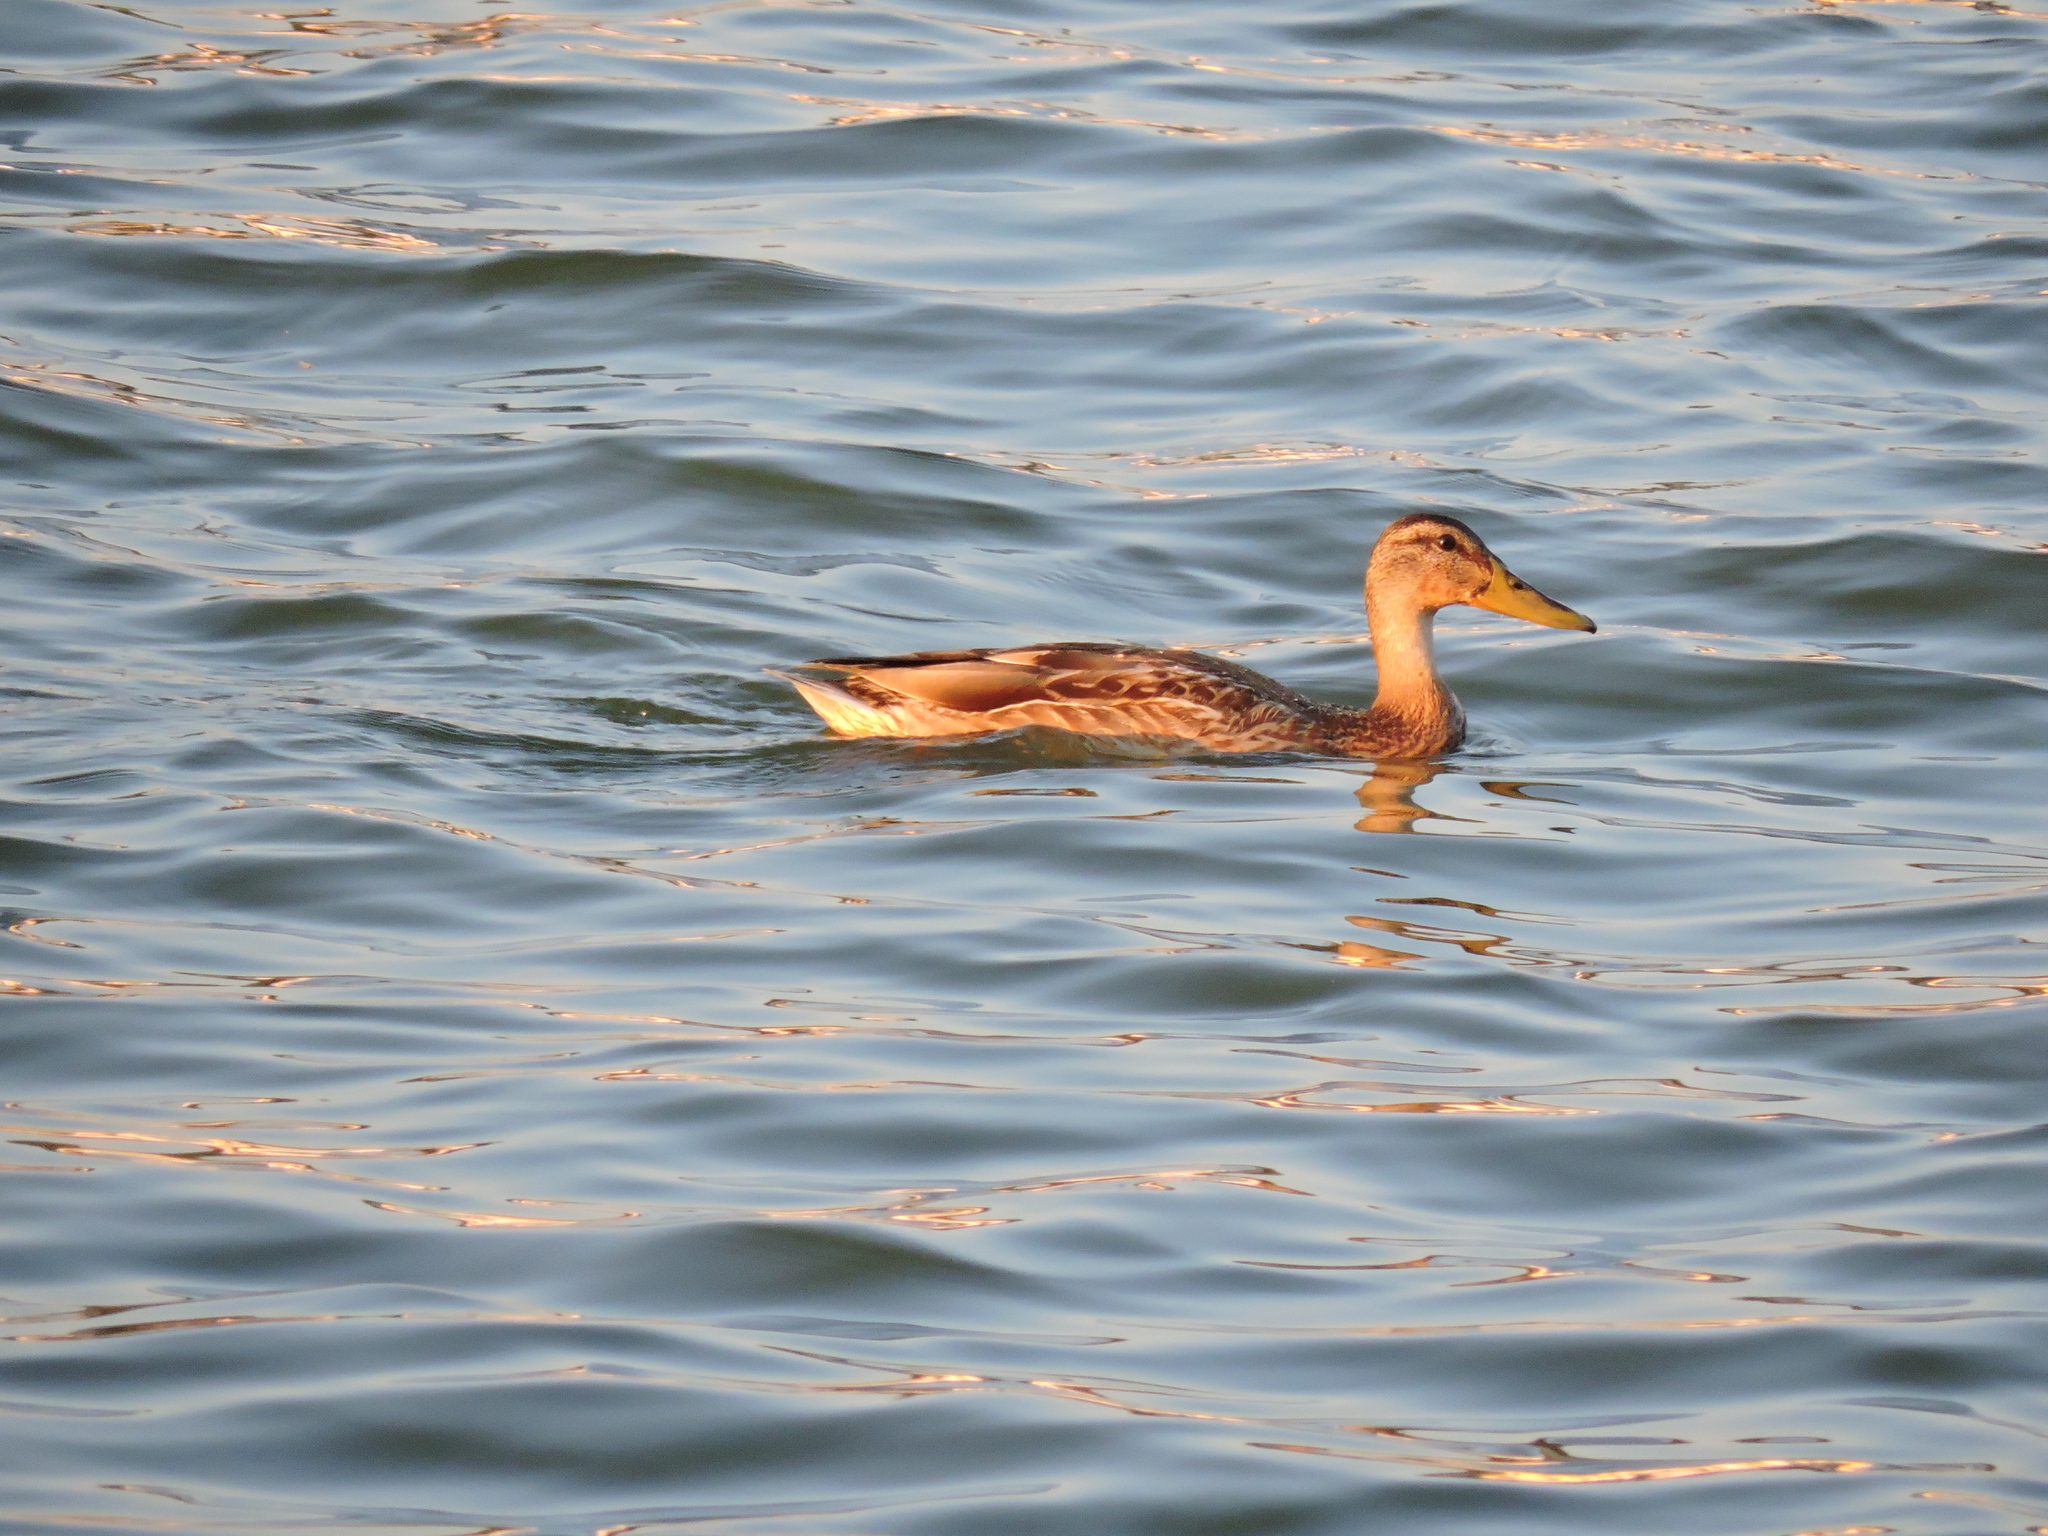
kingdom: Animalia
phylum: Chordata
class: Aves
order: Anseriformes
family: Anatidae
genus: Anas
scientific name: Anas platyrhynchos
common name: Mallard
